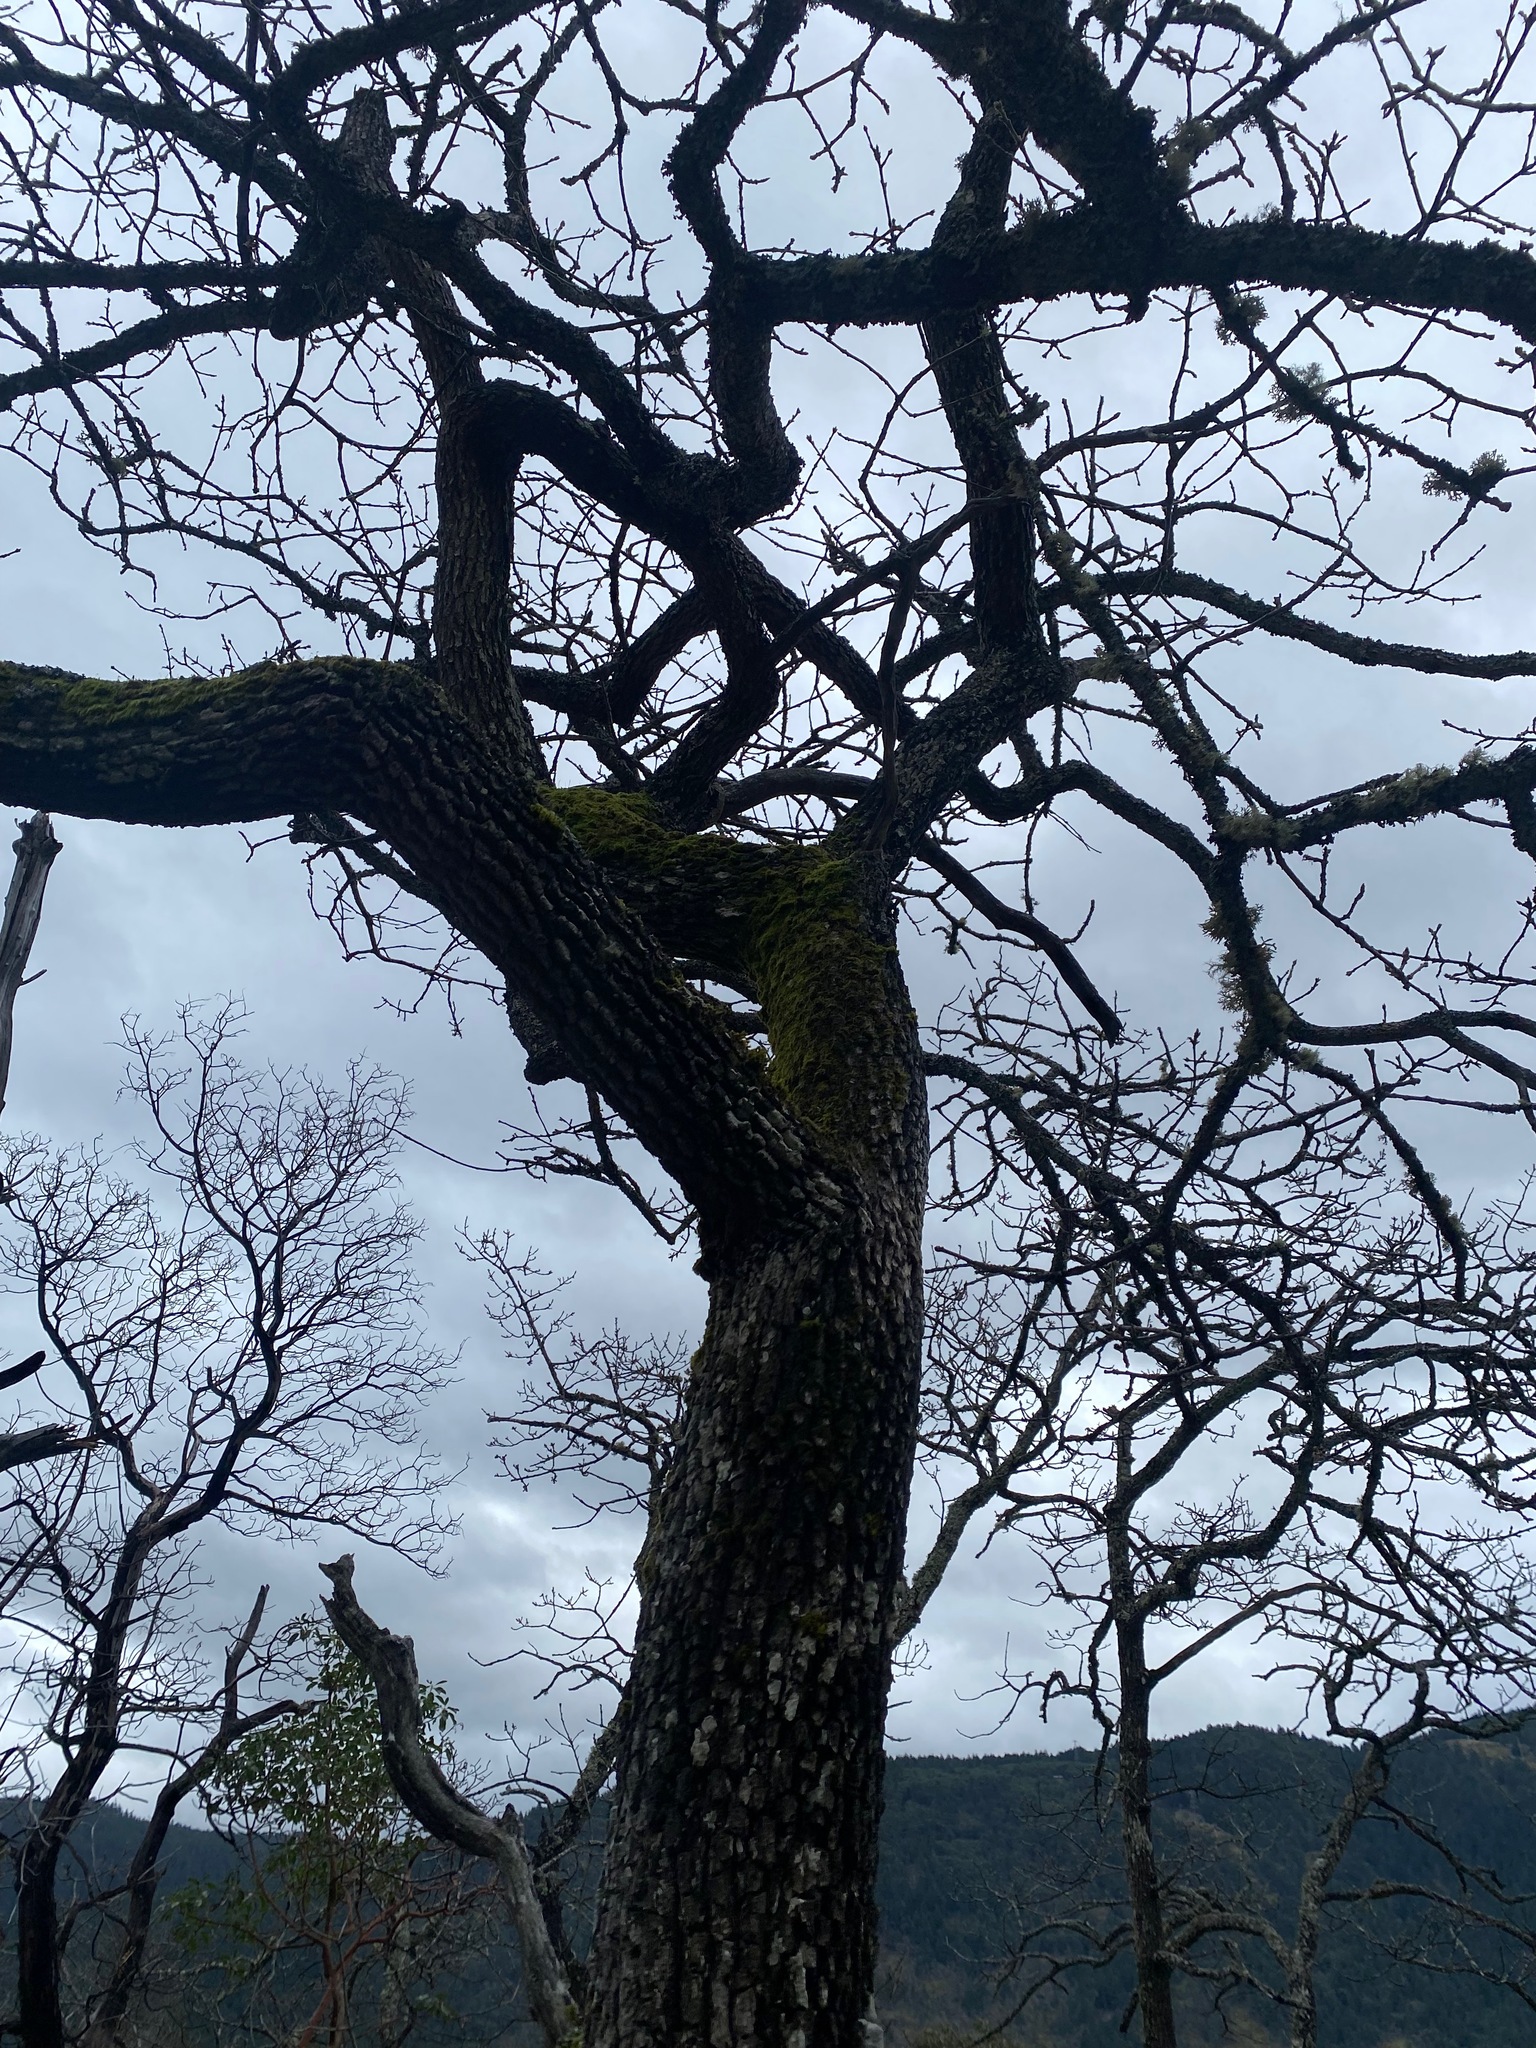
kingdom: Plantae
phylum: Tracheophyta
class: Magnoliopsida
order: Fagales
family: Fagaceae
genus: Quercus
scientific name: Quercus garryana
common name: Garry oak
